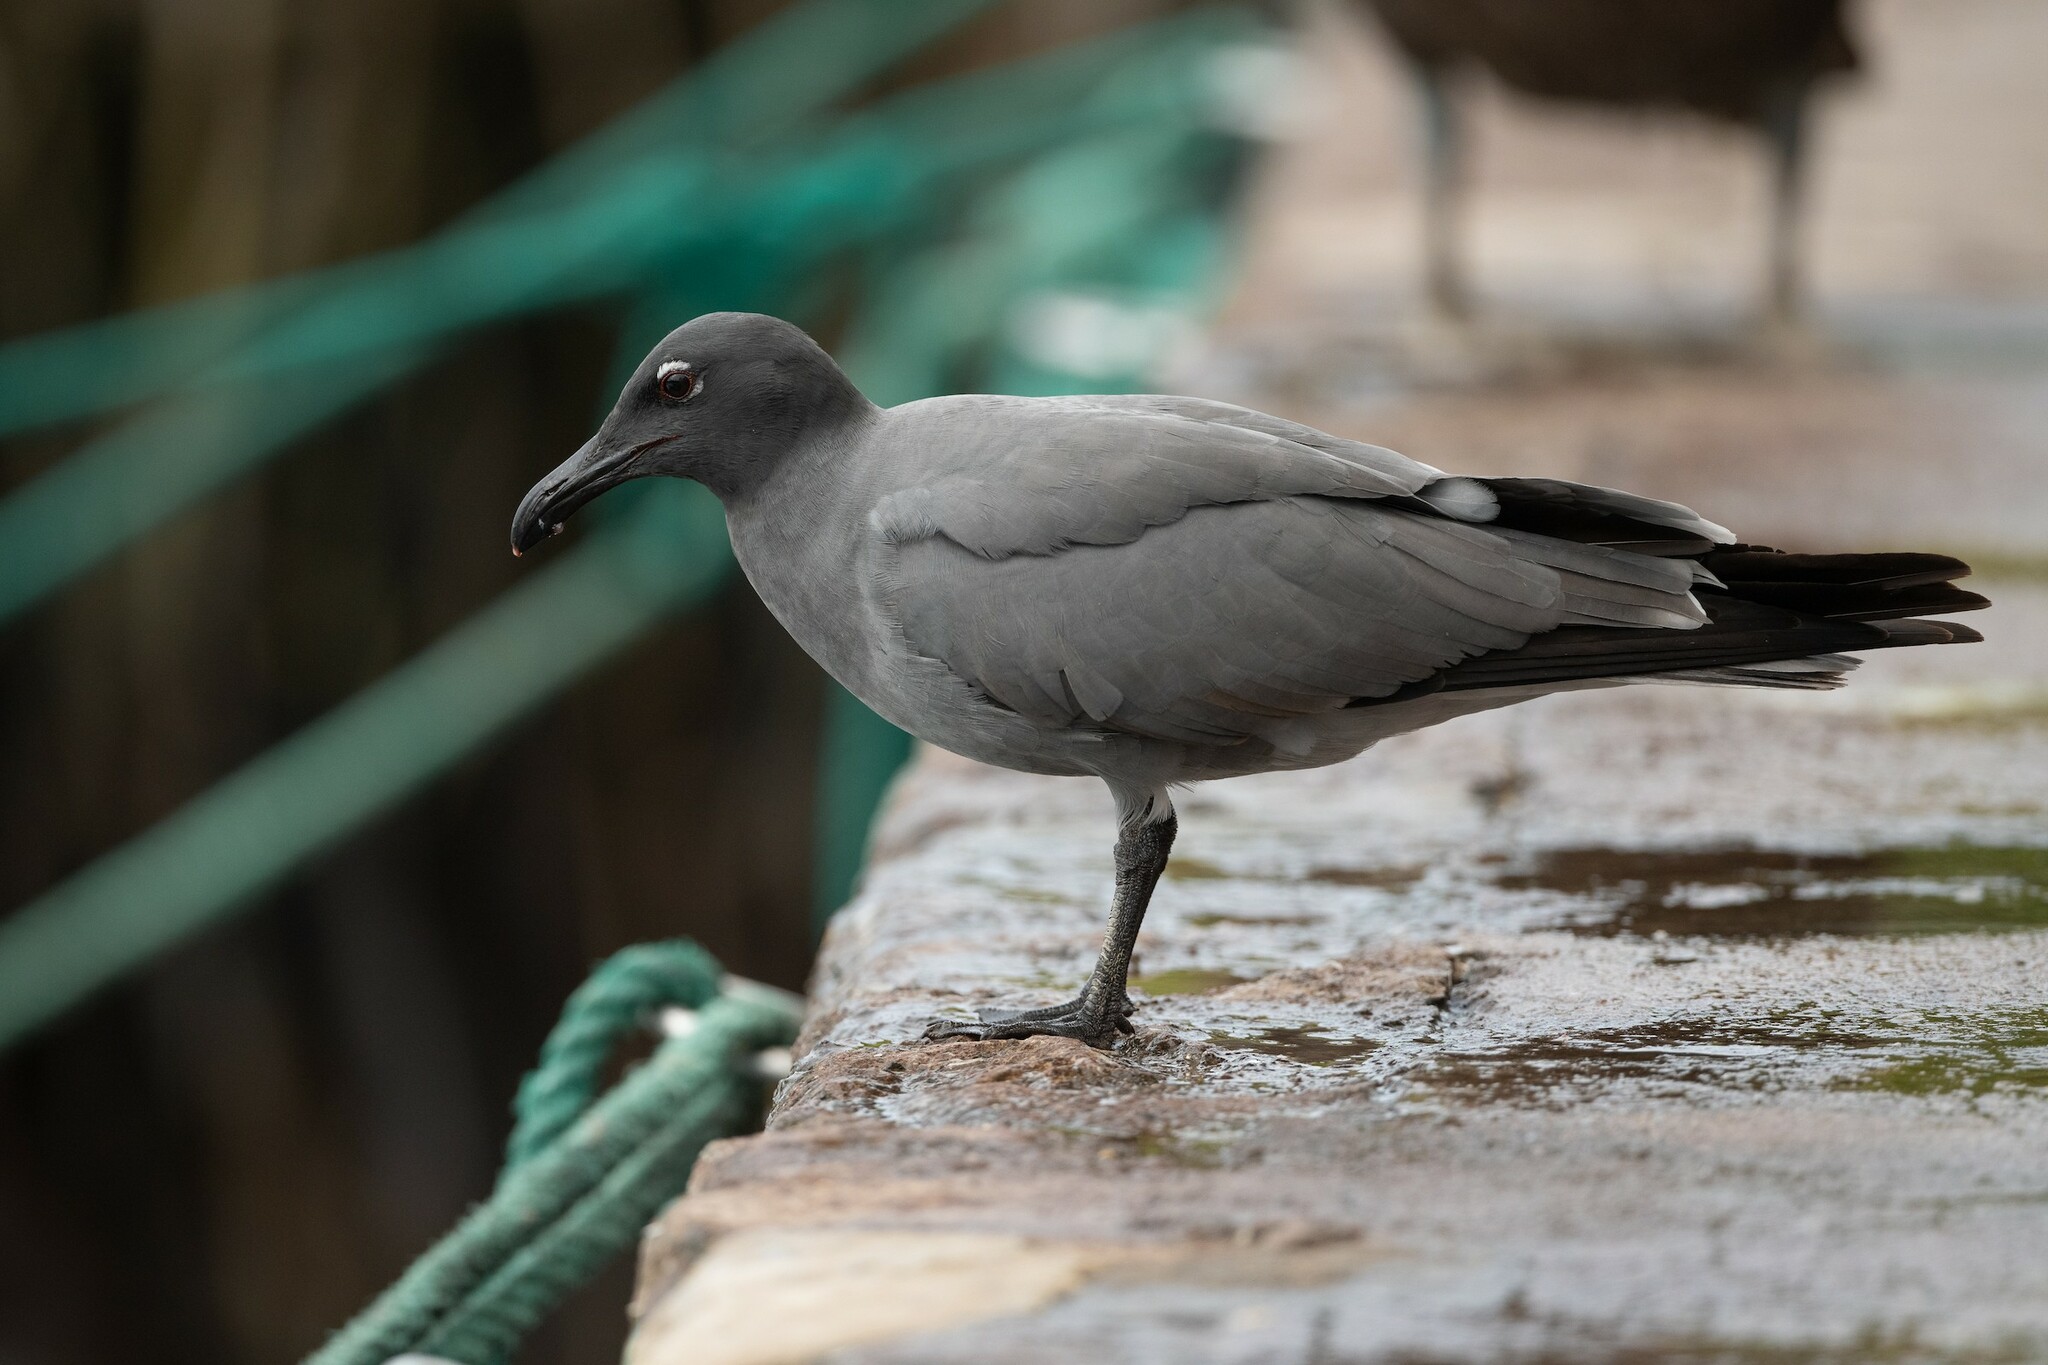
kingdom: Animalia
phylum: Chordata
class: Aves
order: Charadriiformes
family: Laridae
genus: Leucophaeus
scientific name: Leucophaeus fuliginosus
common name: Lava gull
